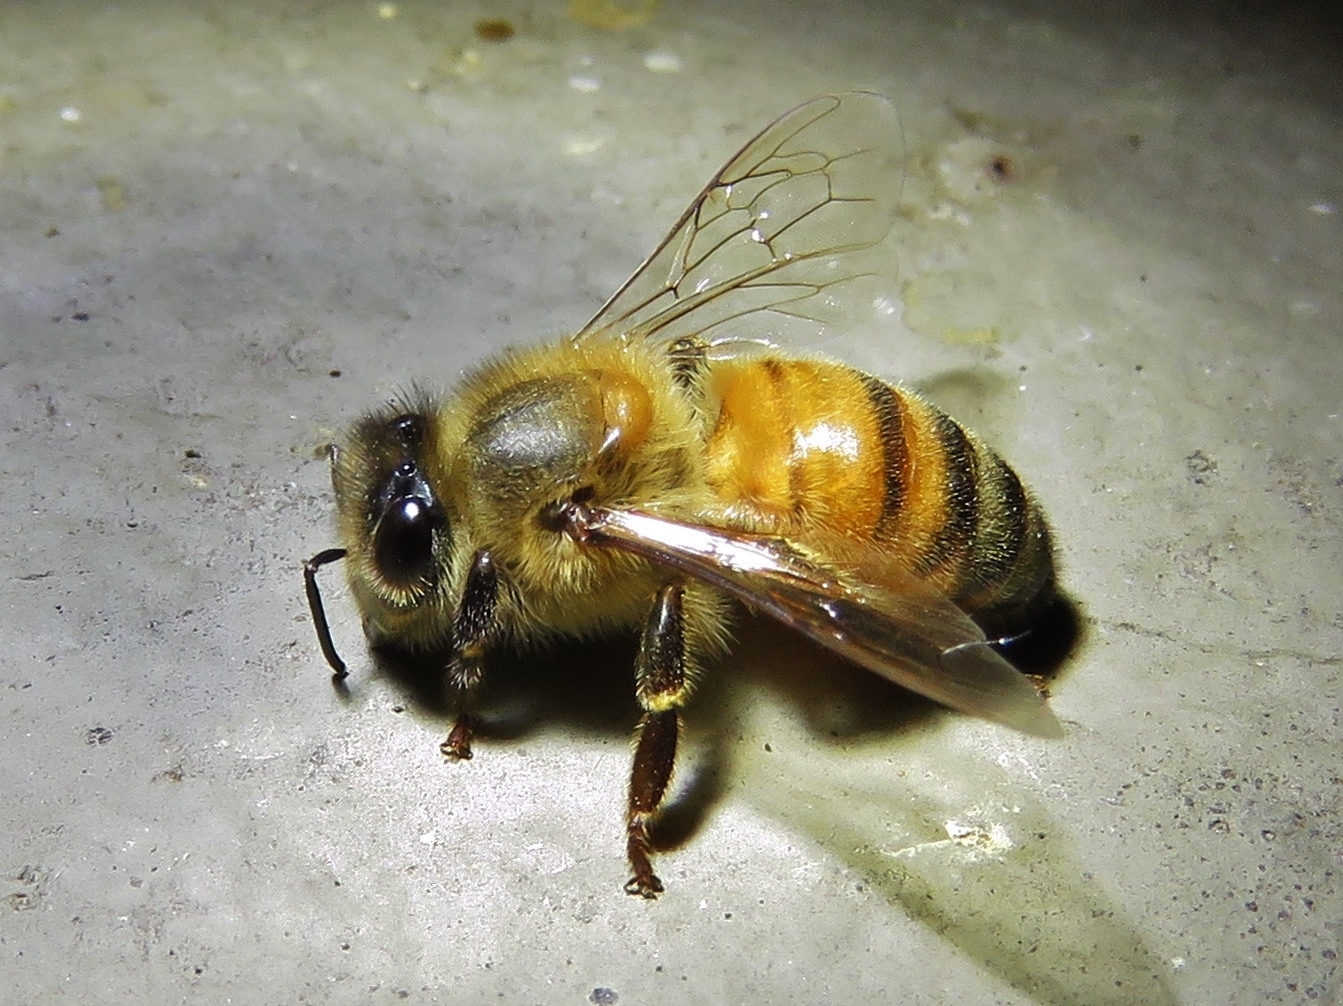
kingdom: Animalia
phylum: Arthropoda
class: Insecta
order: Hymenoptera
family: Apidae
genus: Apis
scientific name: Apis mellifera
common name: Honey bee
